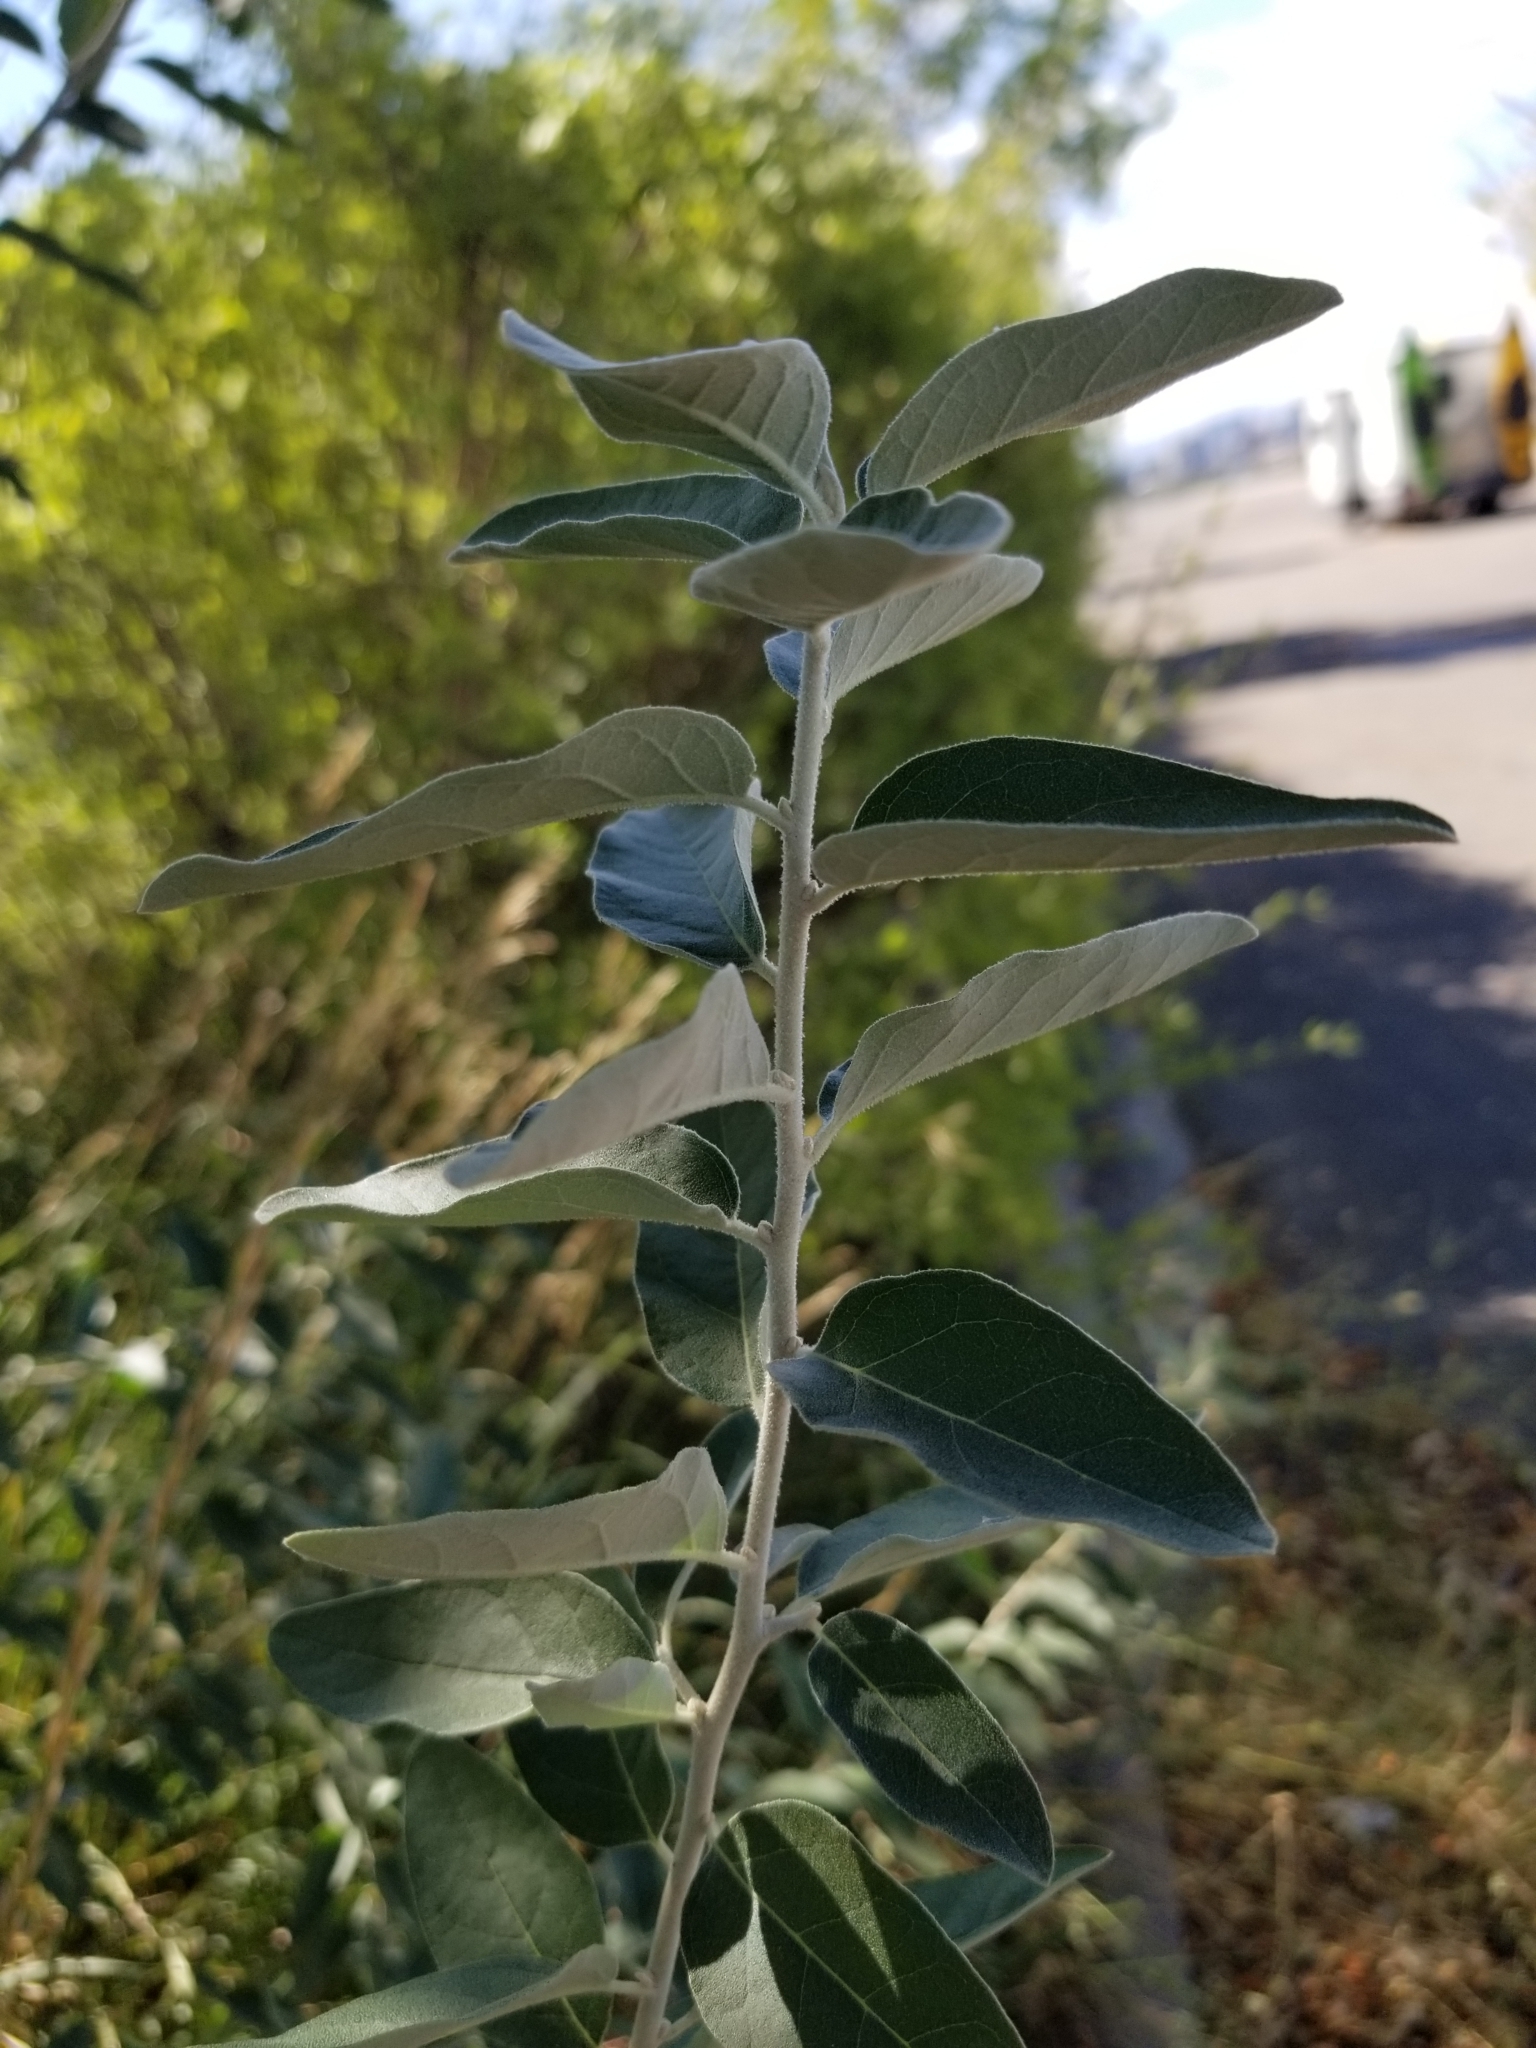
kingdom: Plantae
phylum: Tracheophyta
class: Magnoliopsida
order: Rosales
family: Elaeagnaceae
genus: Elaeagnus
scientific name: Elaeagnus angustifolia
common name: Russian olive
